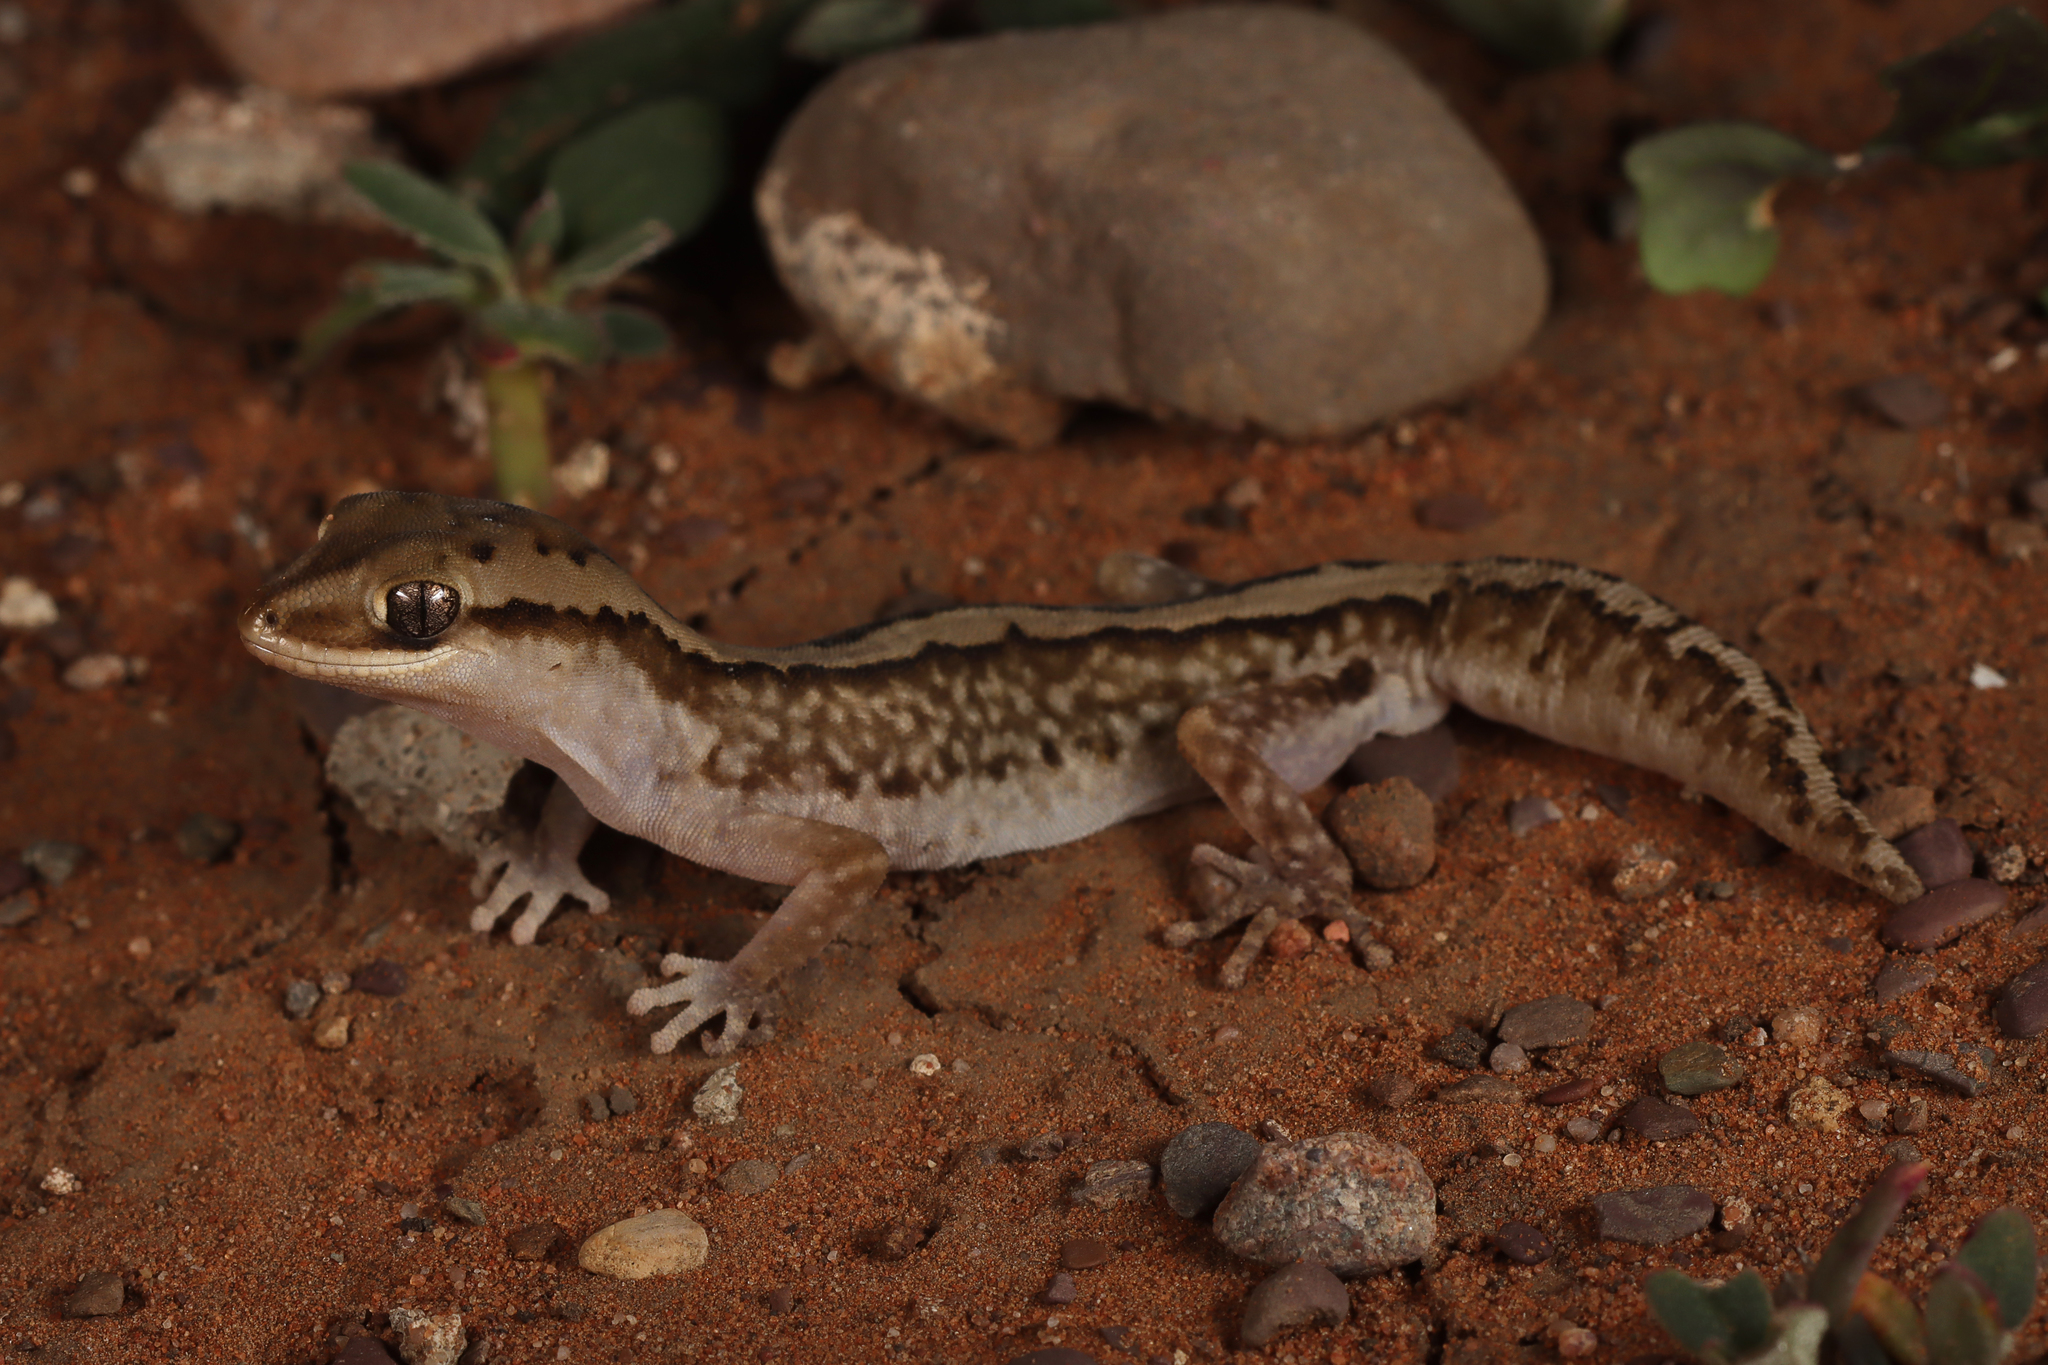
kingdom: Animalia
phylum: Chordata
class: Squamata
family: Diplodactylidae
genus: Diplodactylus
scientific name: Diplodactylus furcosus
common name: Ranges stone gecko
